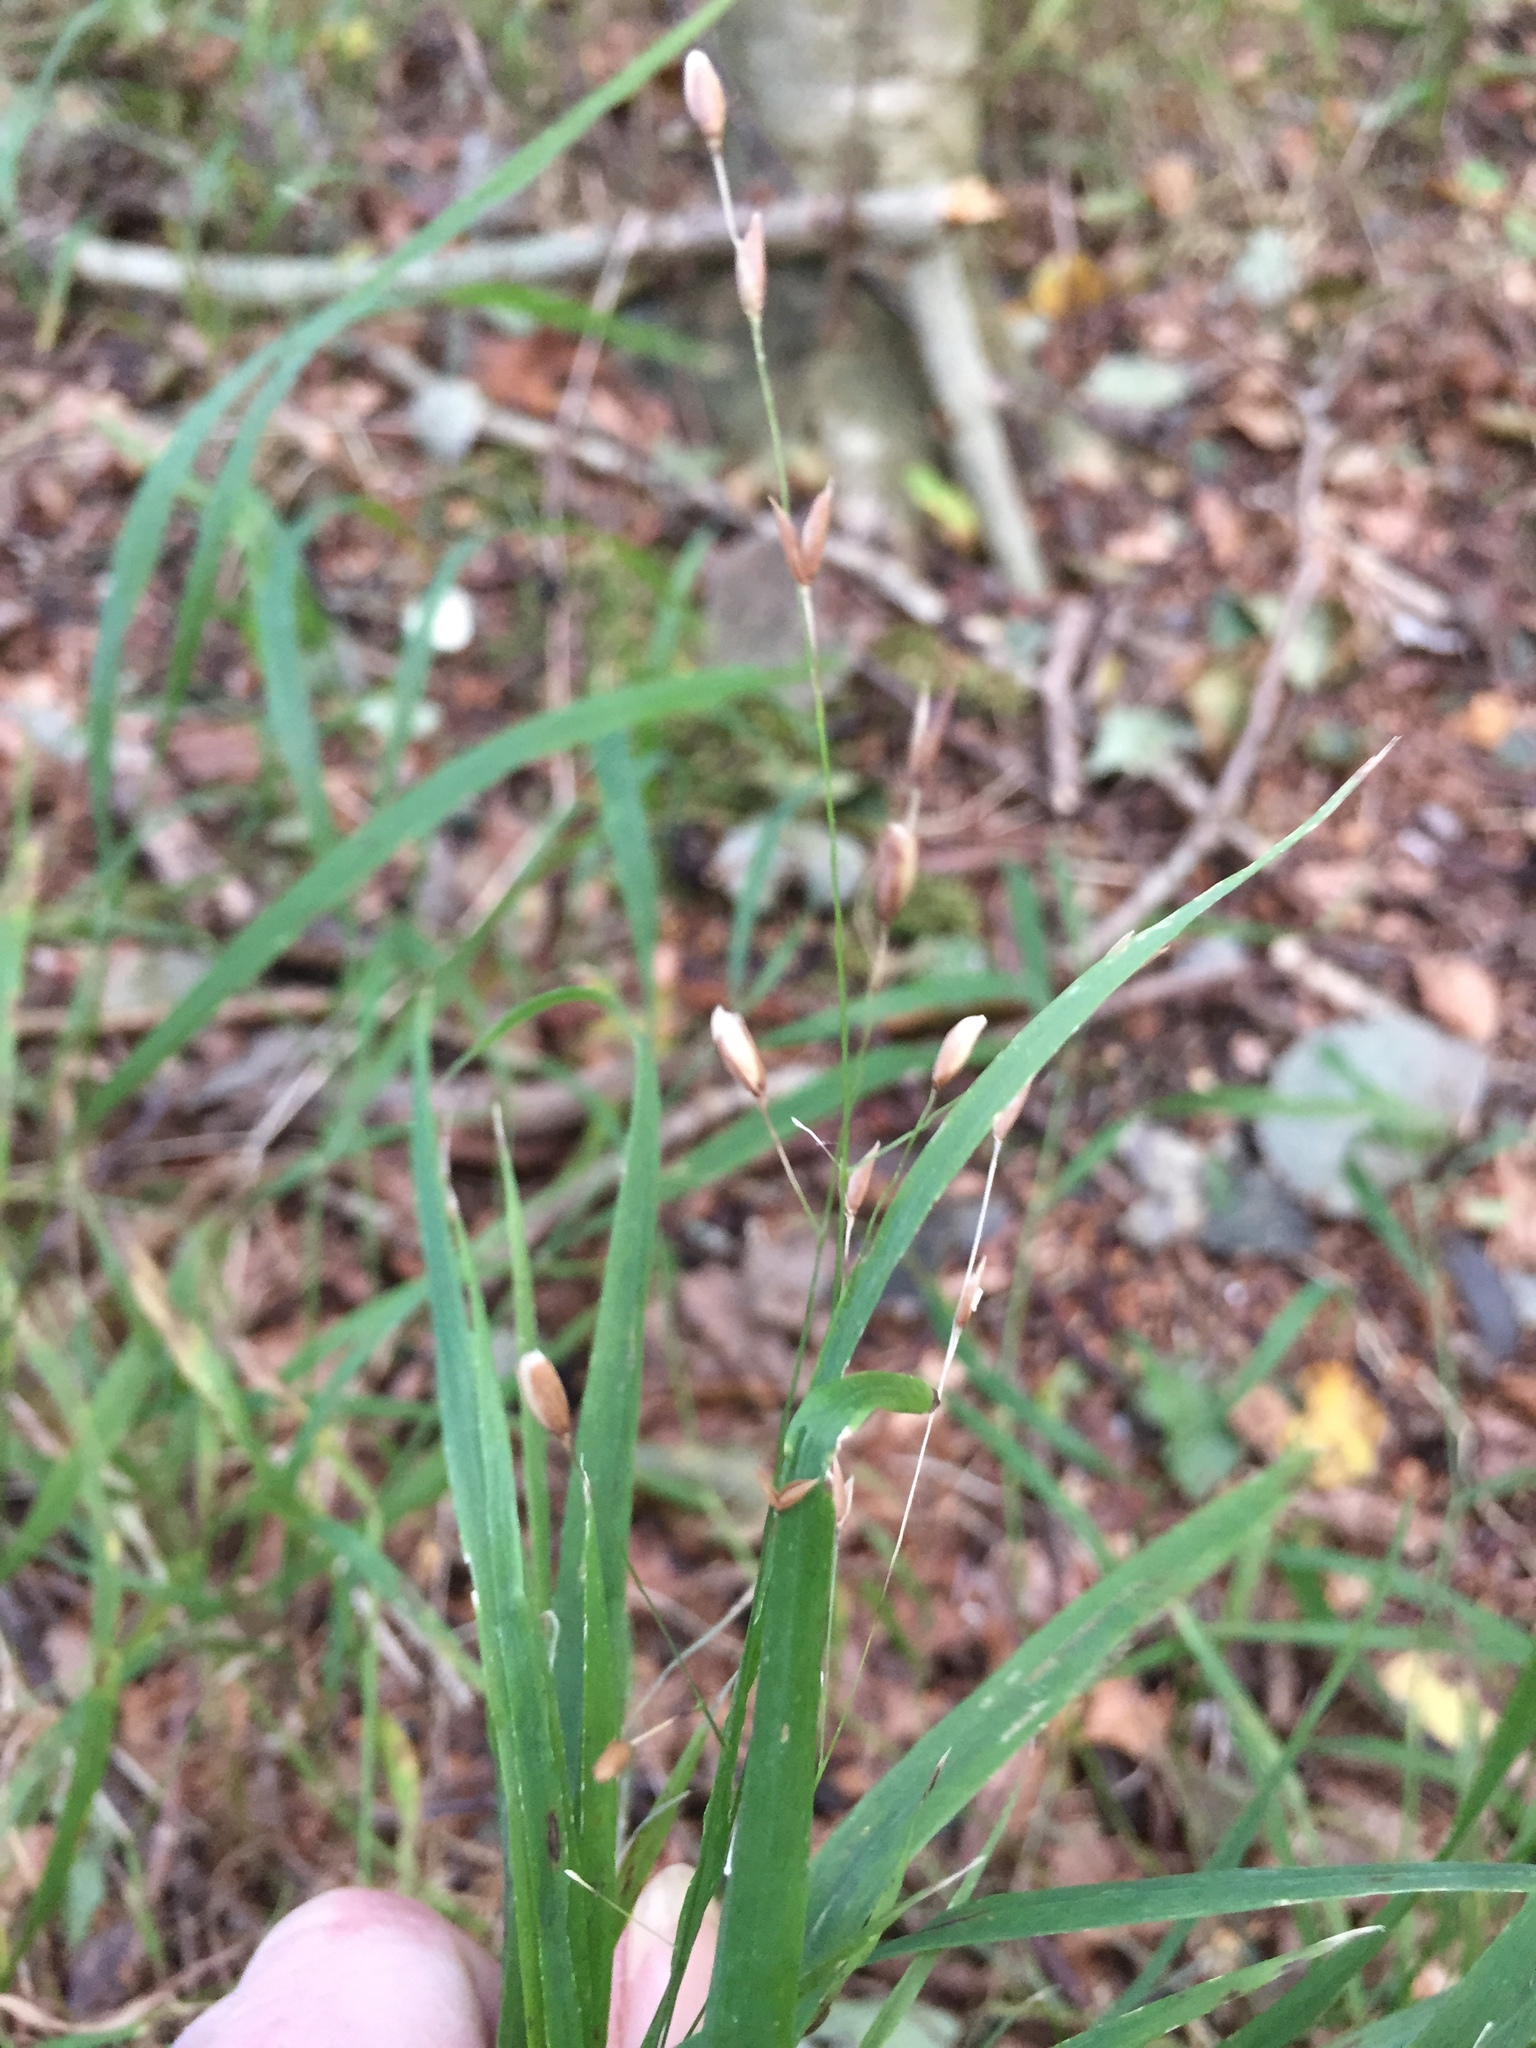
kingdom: Plantae
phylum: Tracheophyta
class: Liliopsida
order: Poales
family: Poaceae
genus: Melica
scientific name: Melica uniflora
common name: Wood melick
